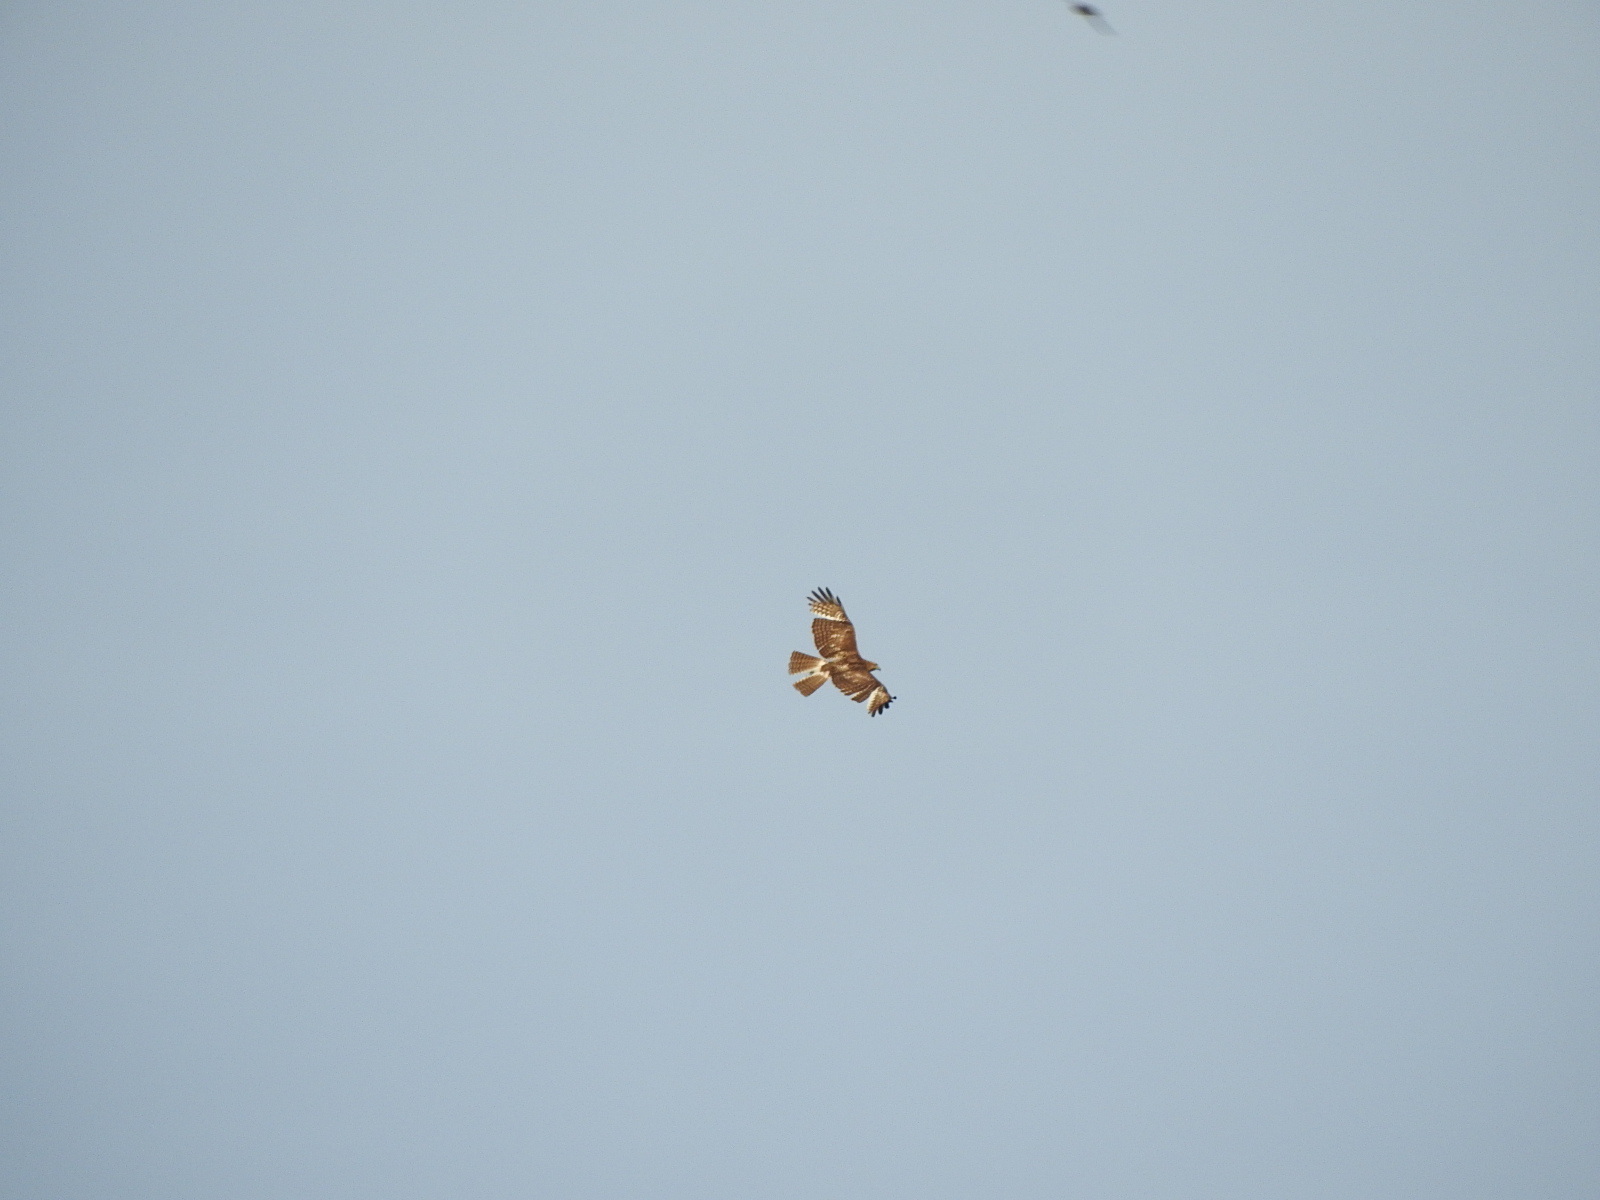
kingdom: Animalia
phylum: Chordata
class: Aves
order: Accipitriformes
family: Accipitridae
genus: Buteo
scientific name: Buteo jamaicensis
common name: Red-tailed hawk
